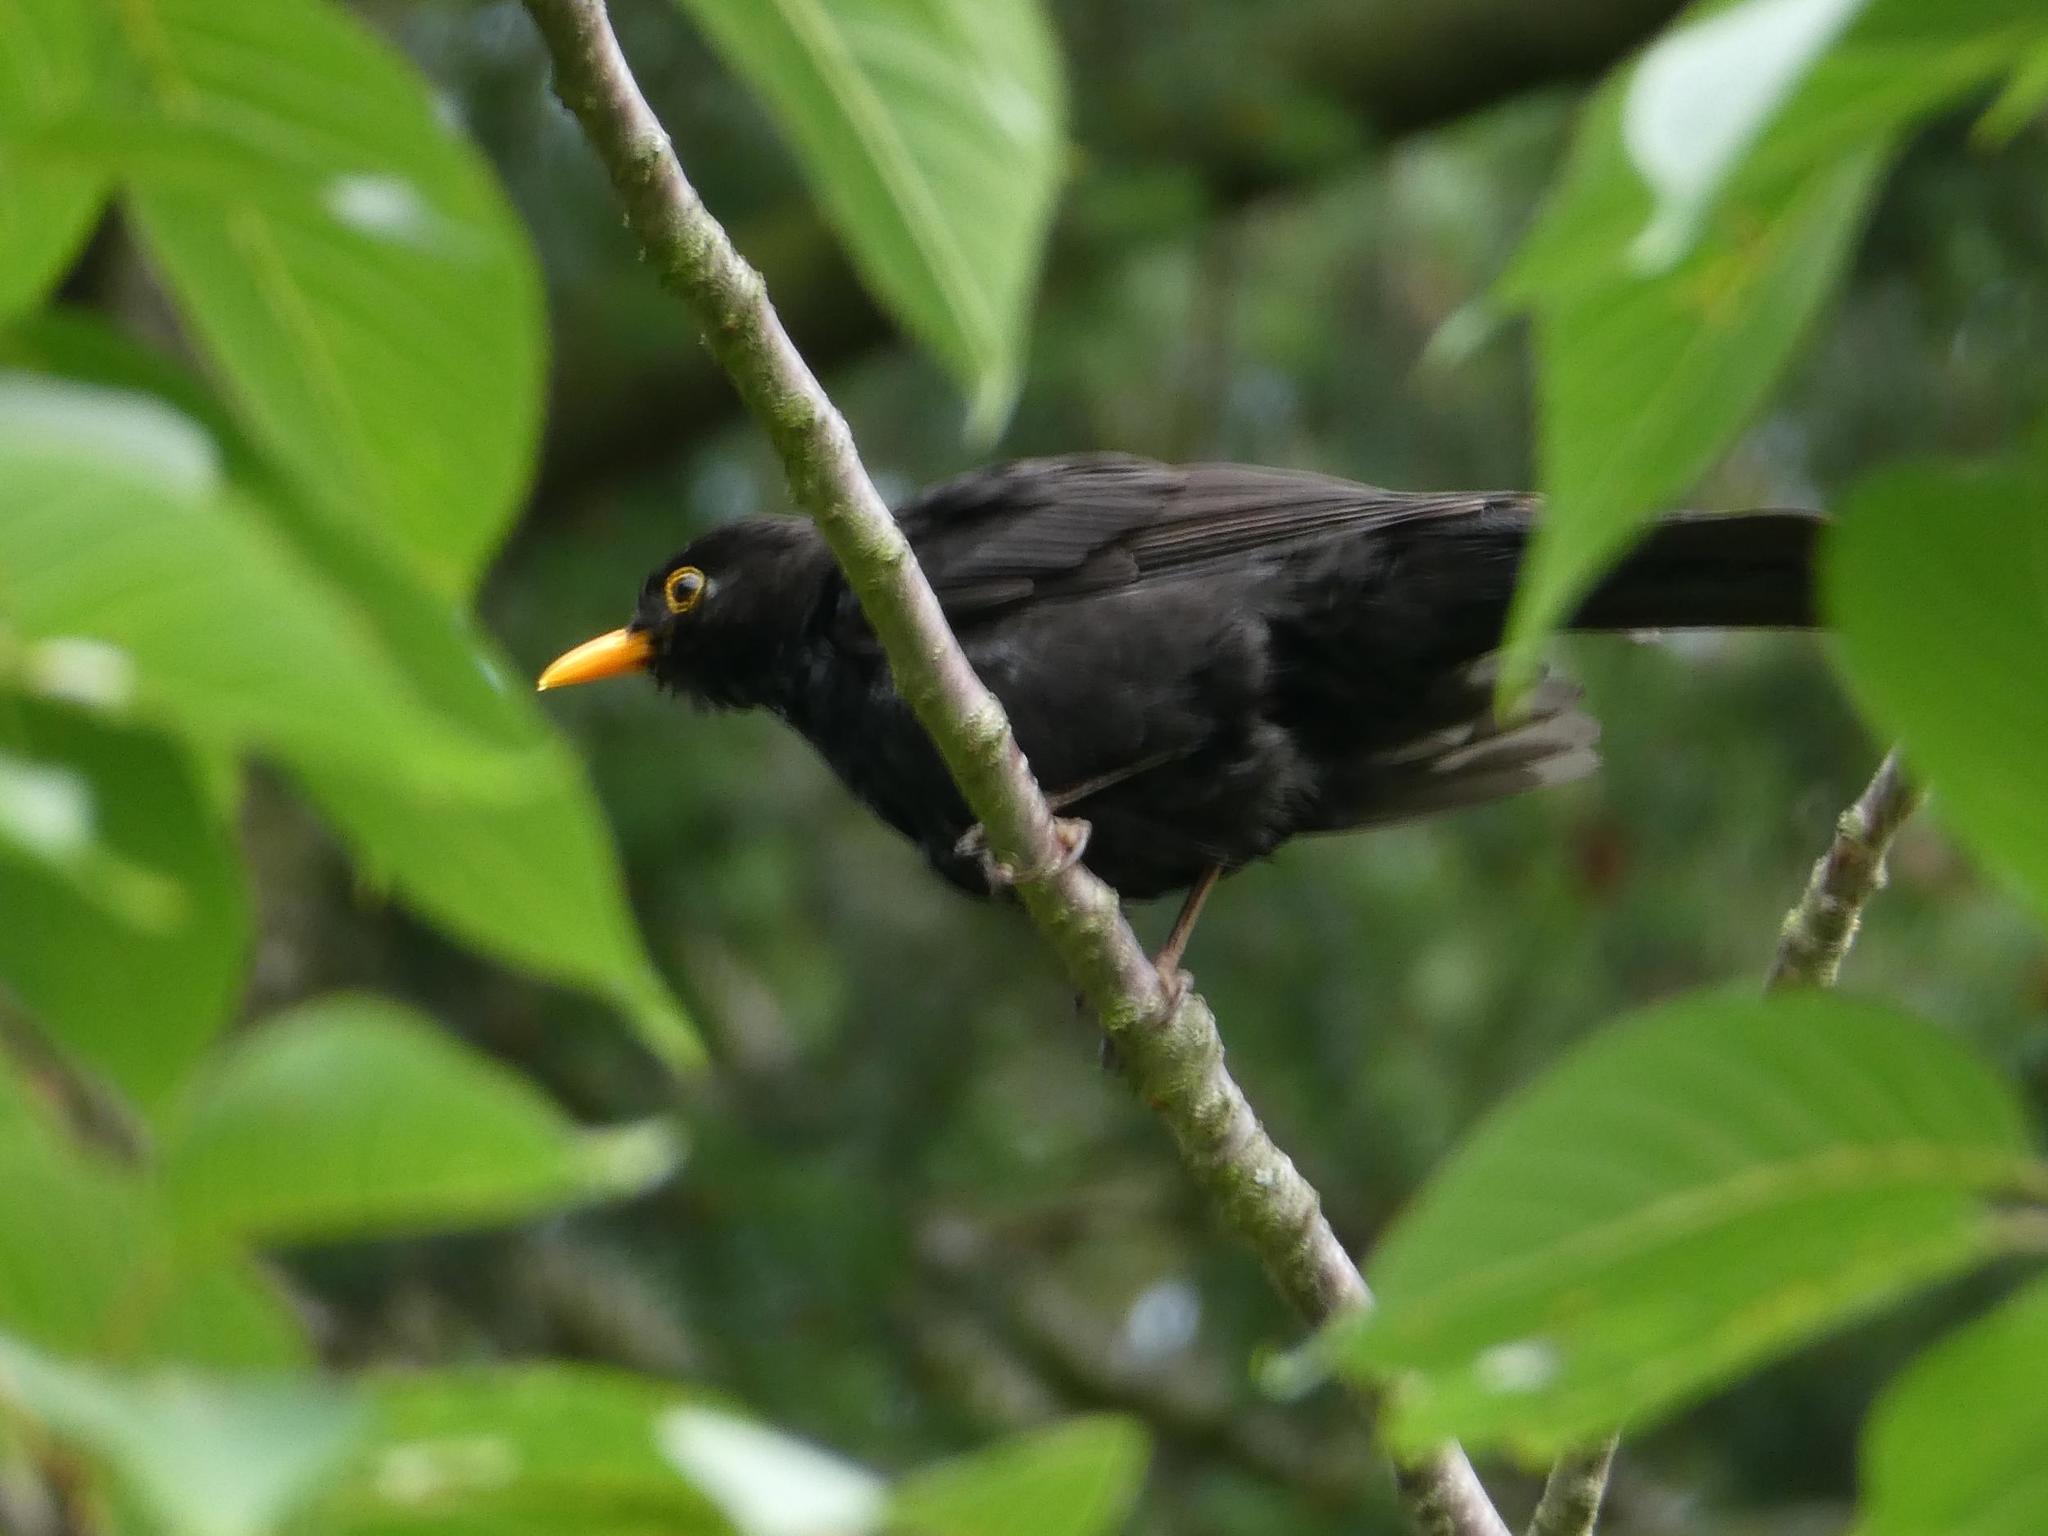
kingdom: Animalia
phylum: Chordata
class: Aves
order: Passeriformes
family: Turdidae
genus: Turdus
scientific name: Turdus merula
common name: Common blackbird
